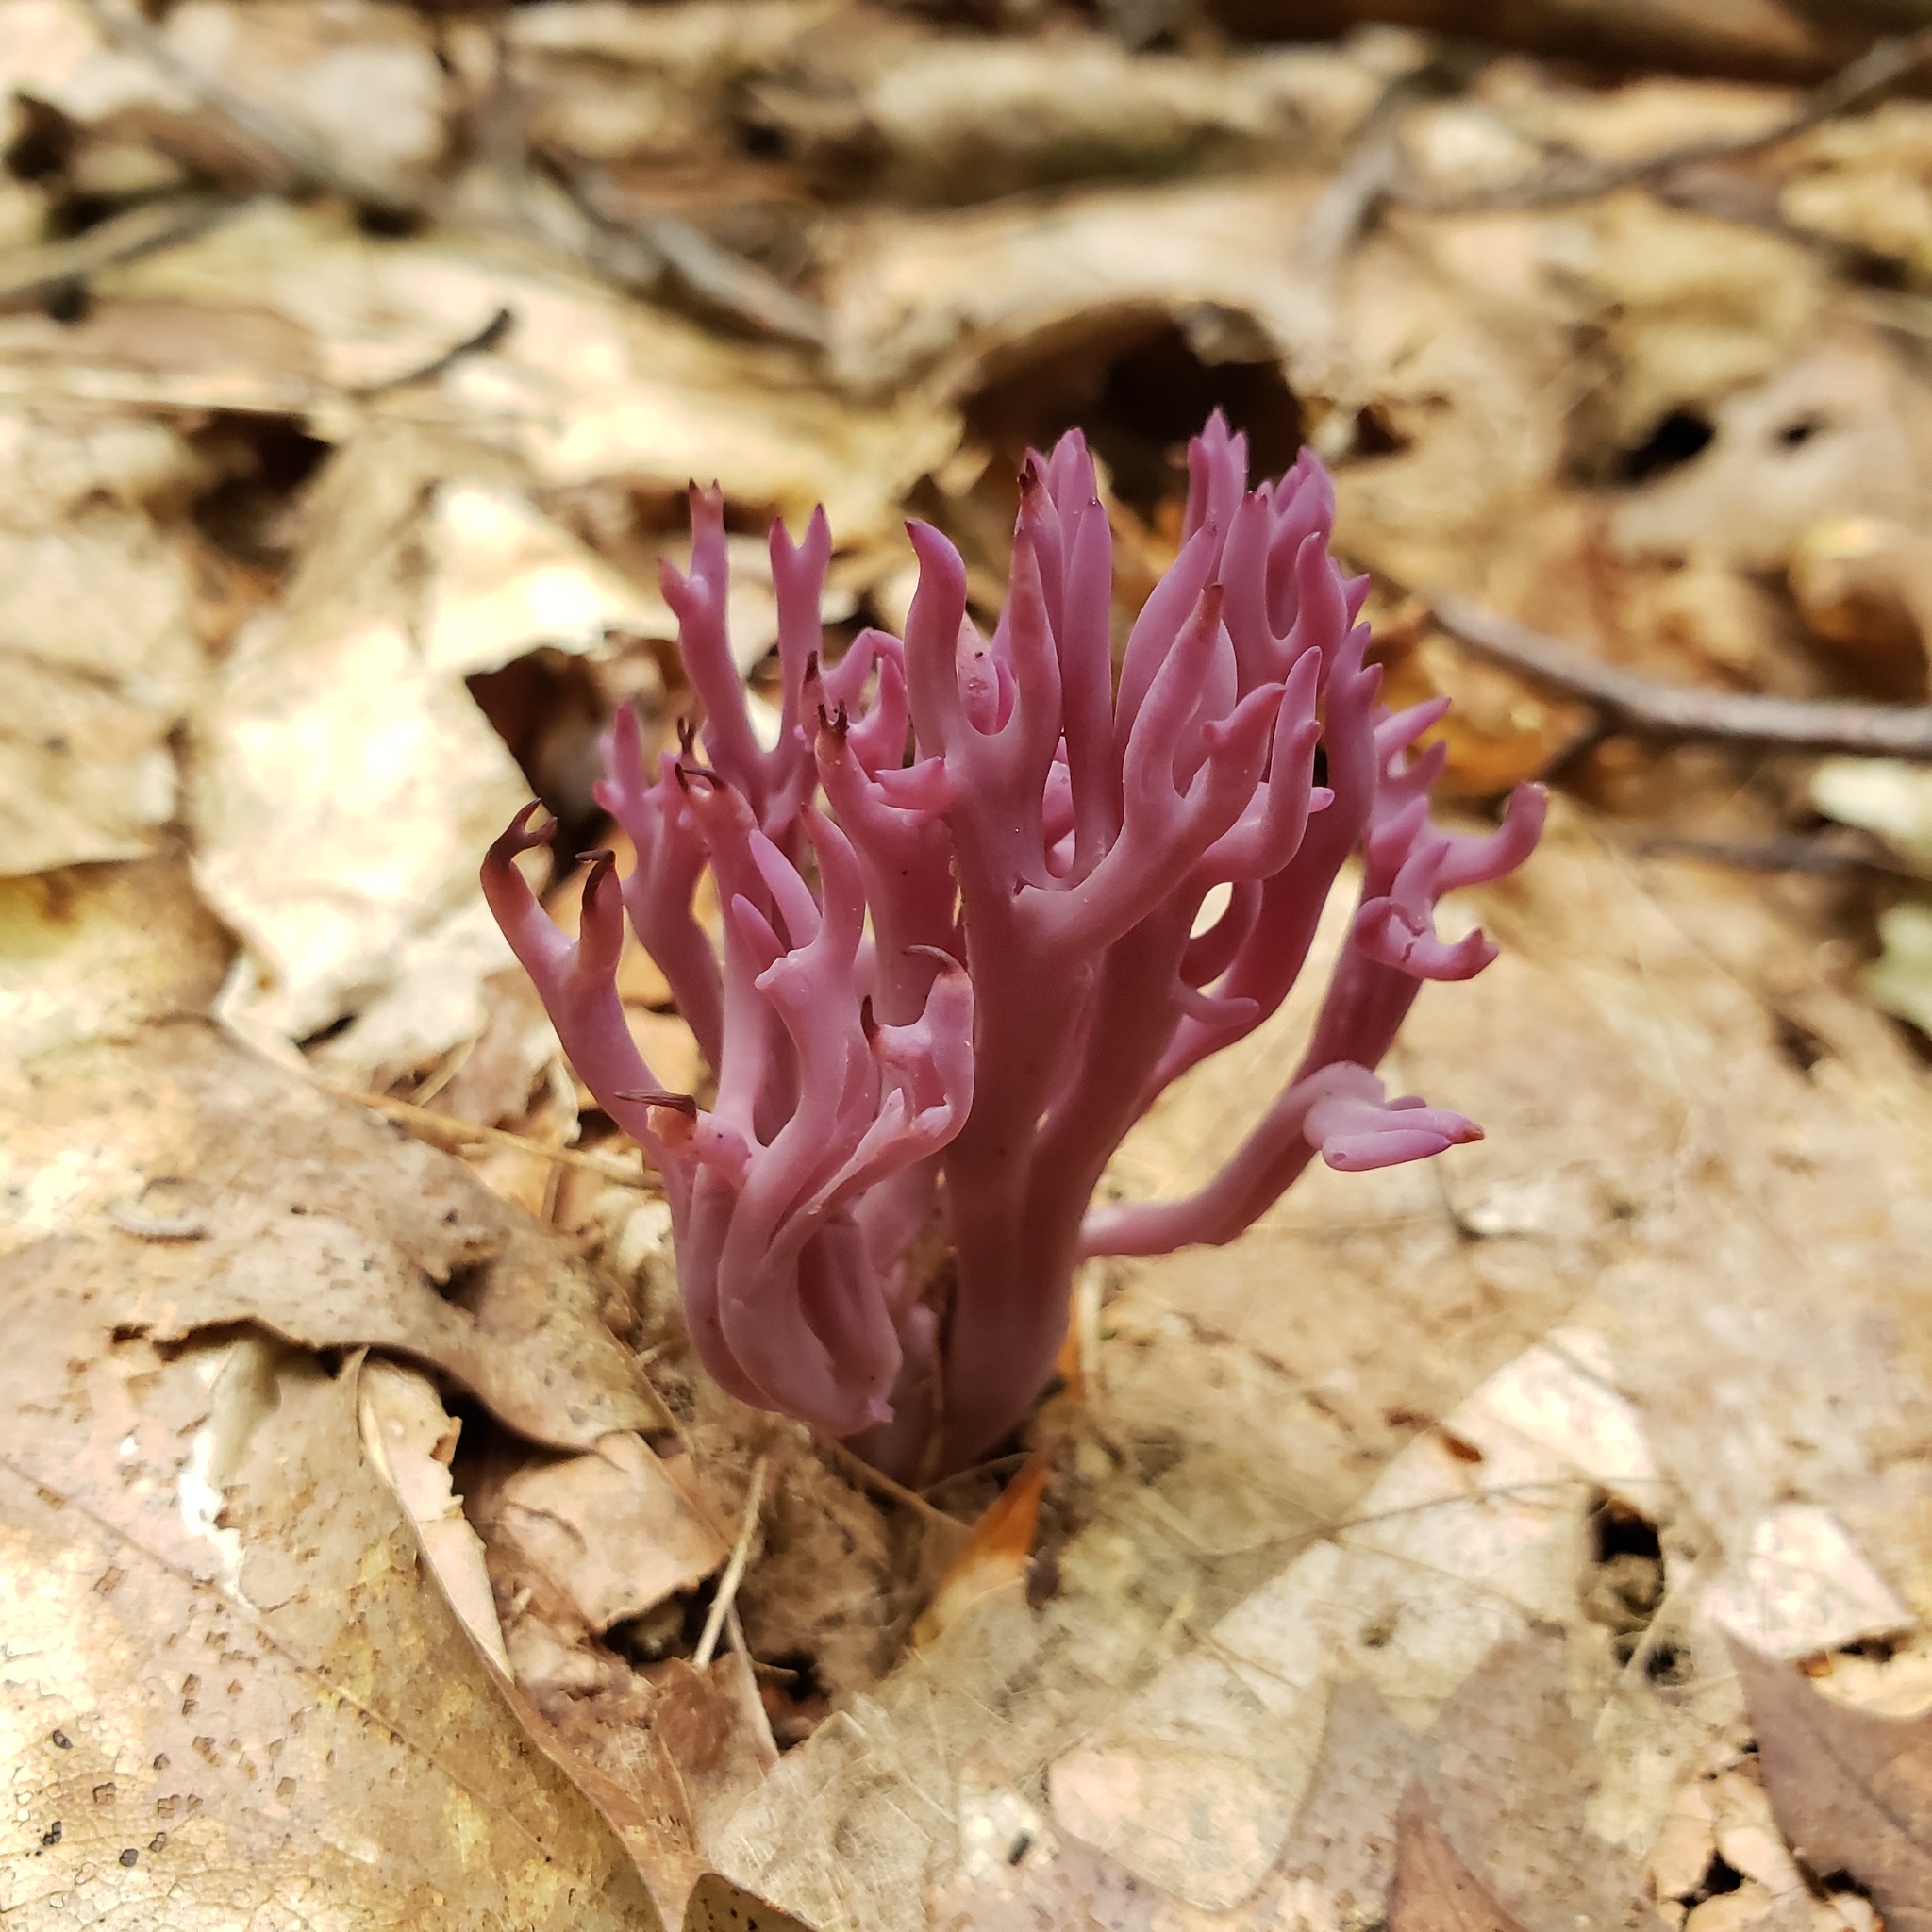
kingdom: Fungi
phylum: Basidiomycota
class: Agaricomycetes
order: Agaricales
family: Clavariaceae
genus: Clavaria
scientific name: Clavaria zollingeri
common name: Violet coral
